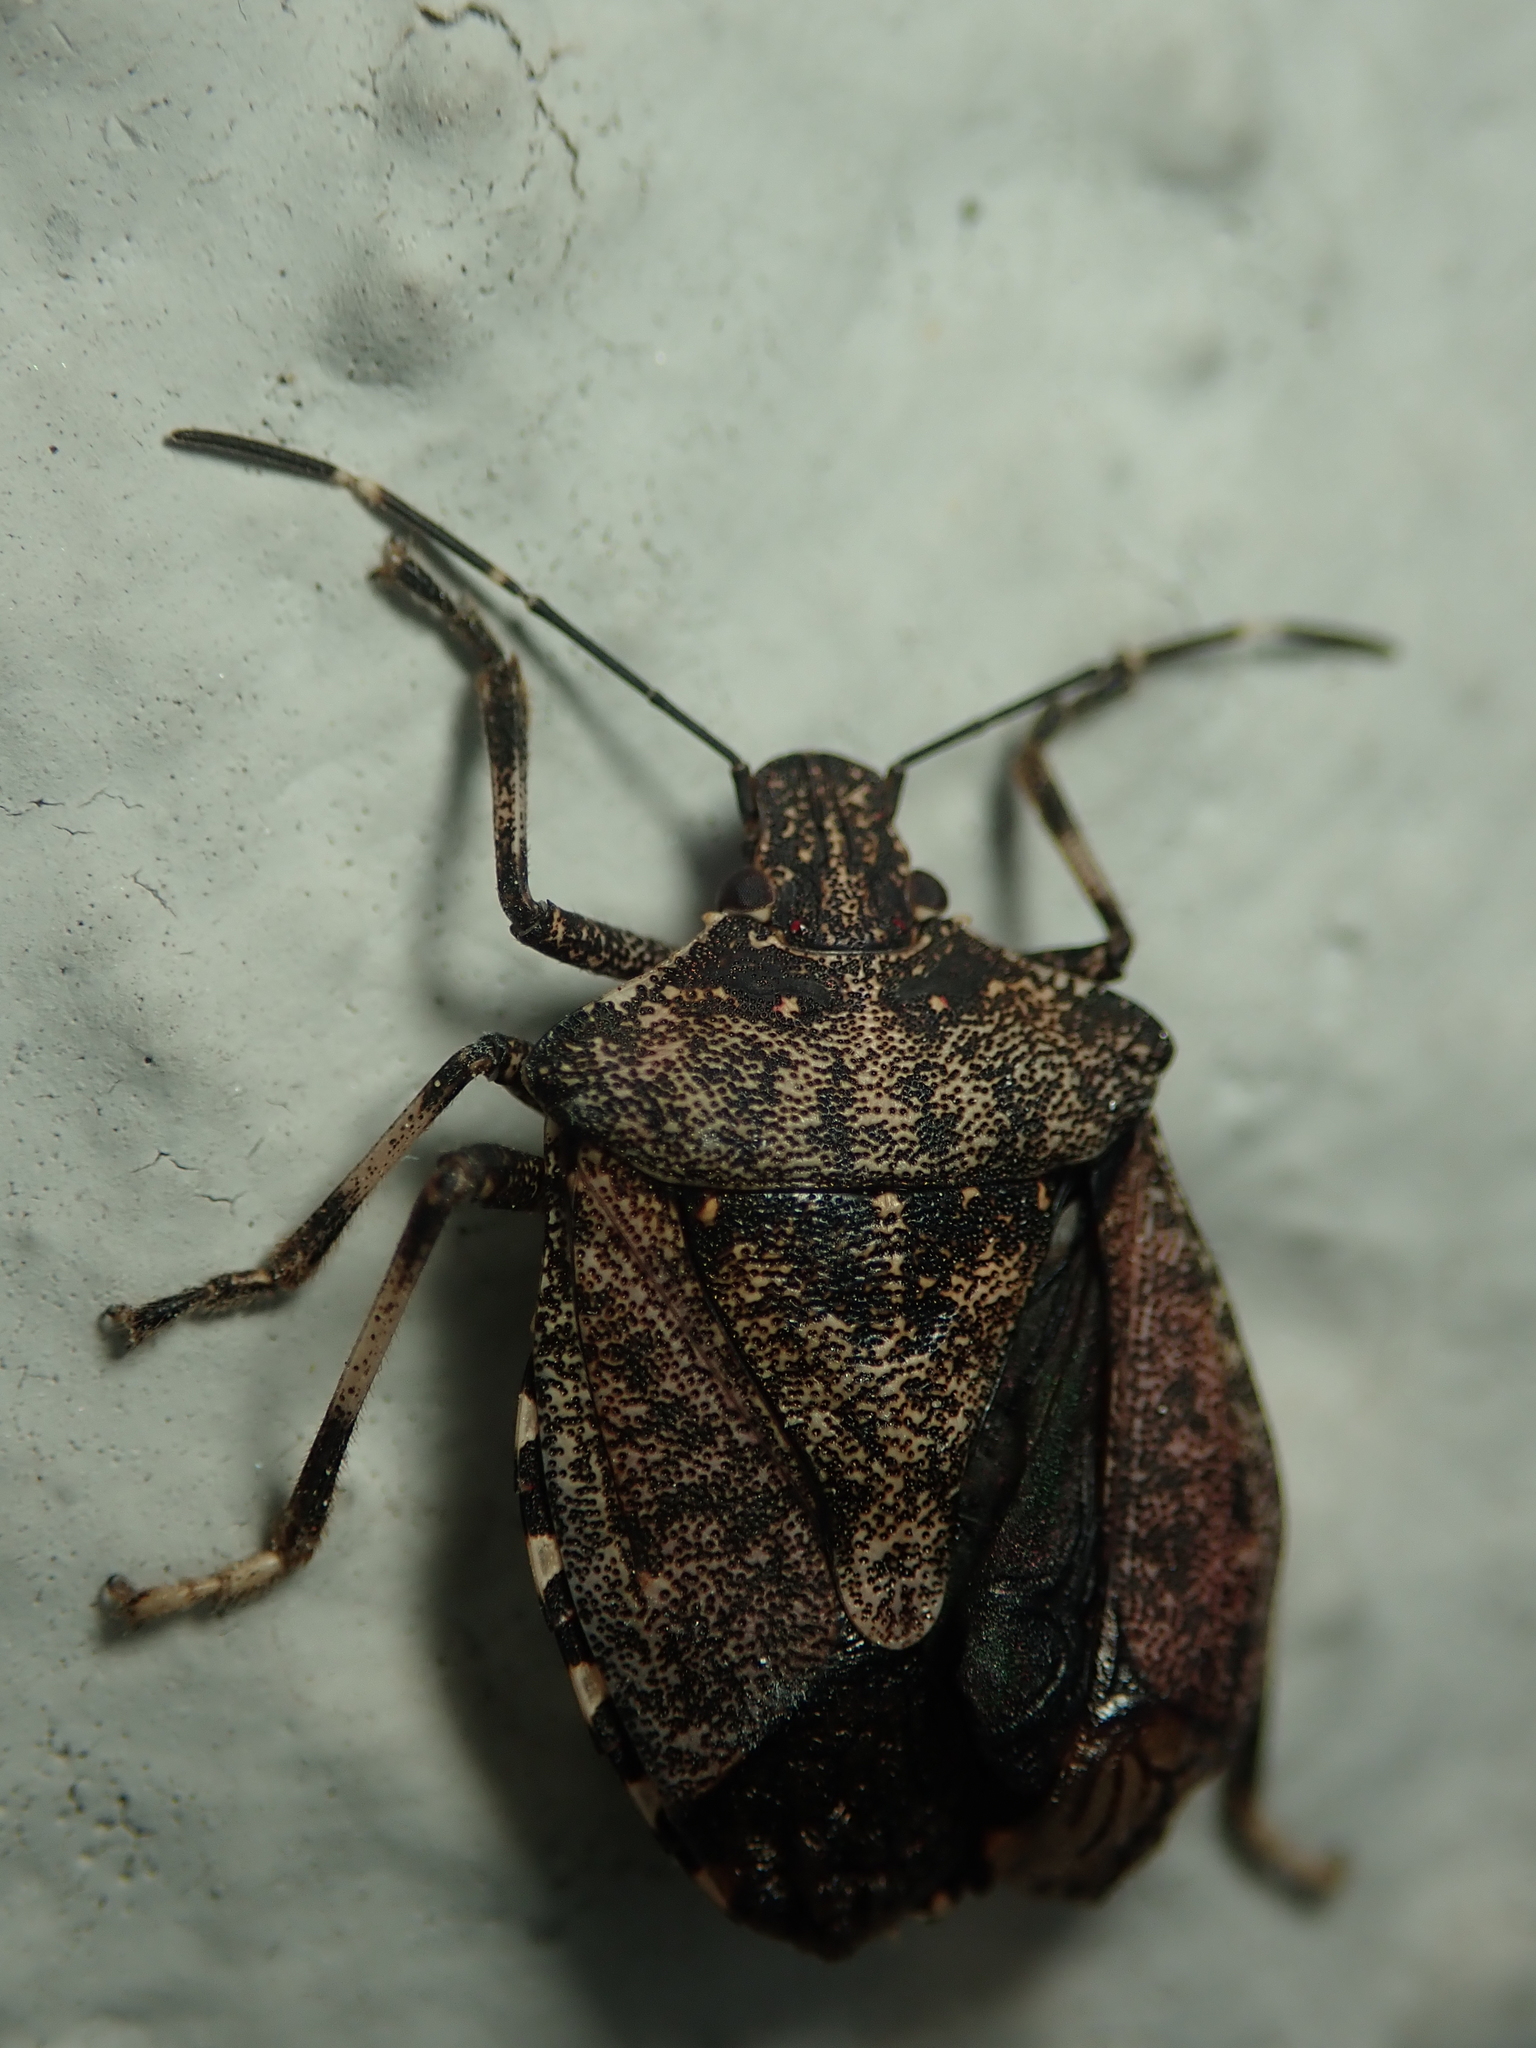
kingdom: Animalia
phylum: Arthropoda
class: Insecta
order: Hemiptera
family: Pentatomidae
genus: Halyomorpha
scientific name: Halyomorpha halys
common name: Brown marmorated stink bug
